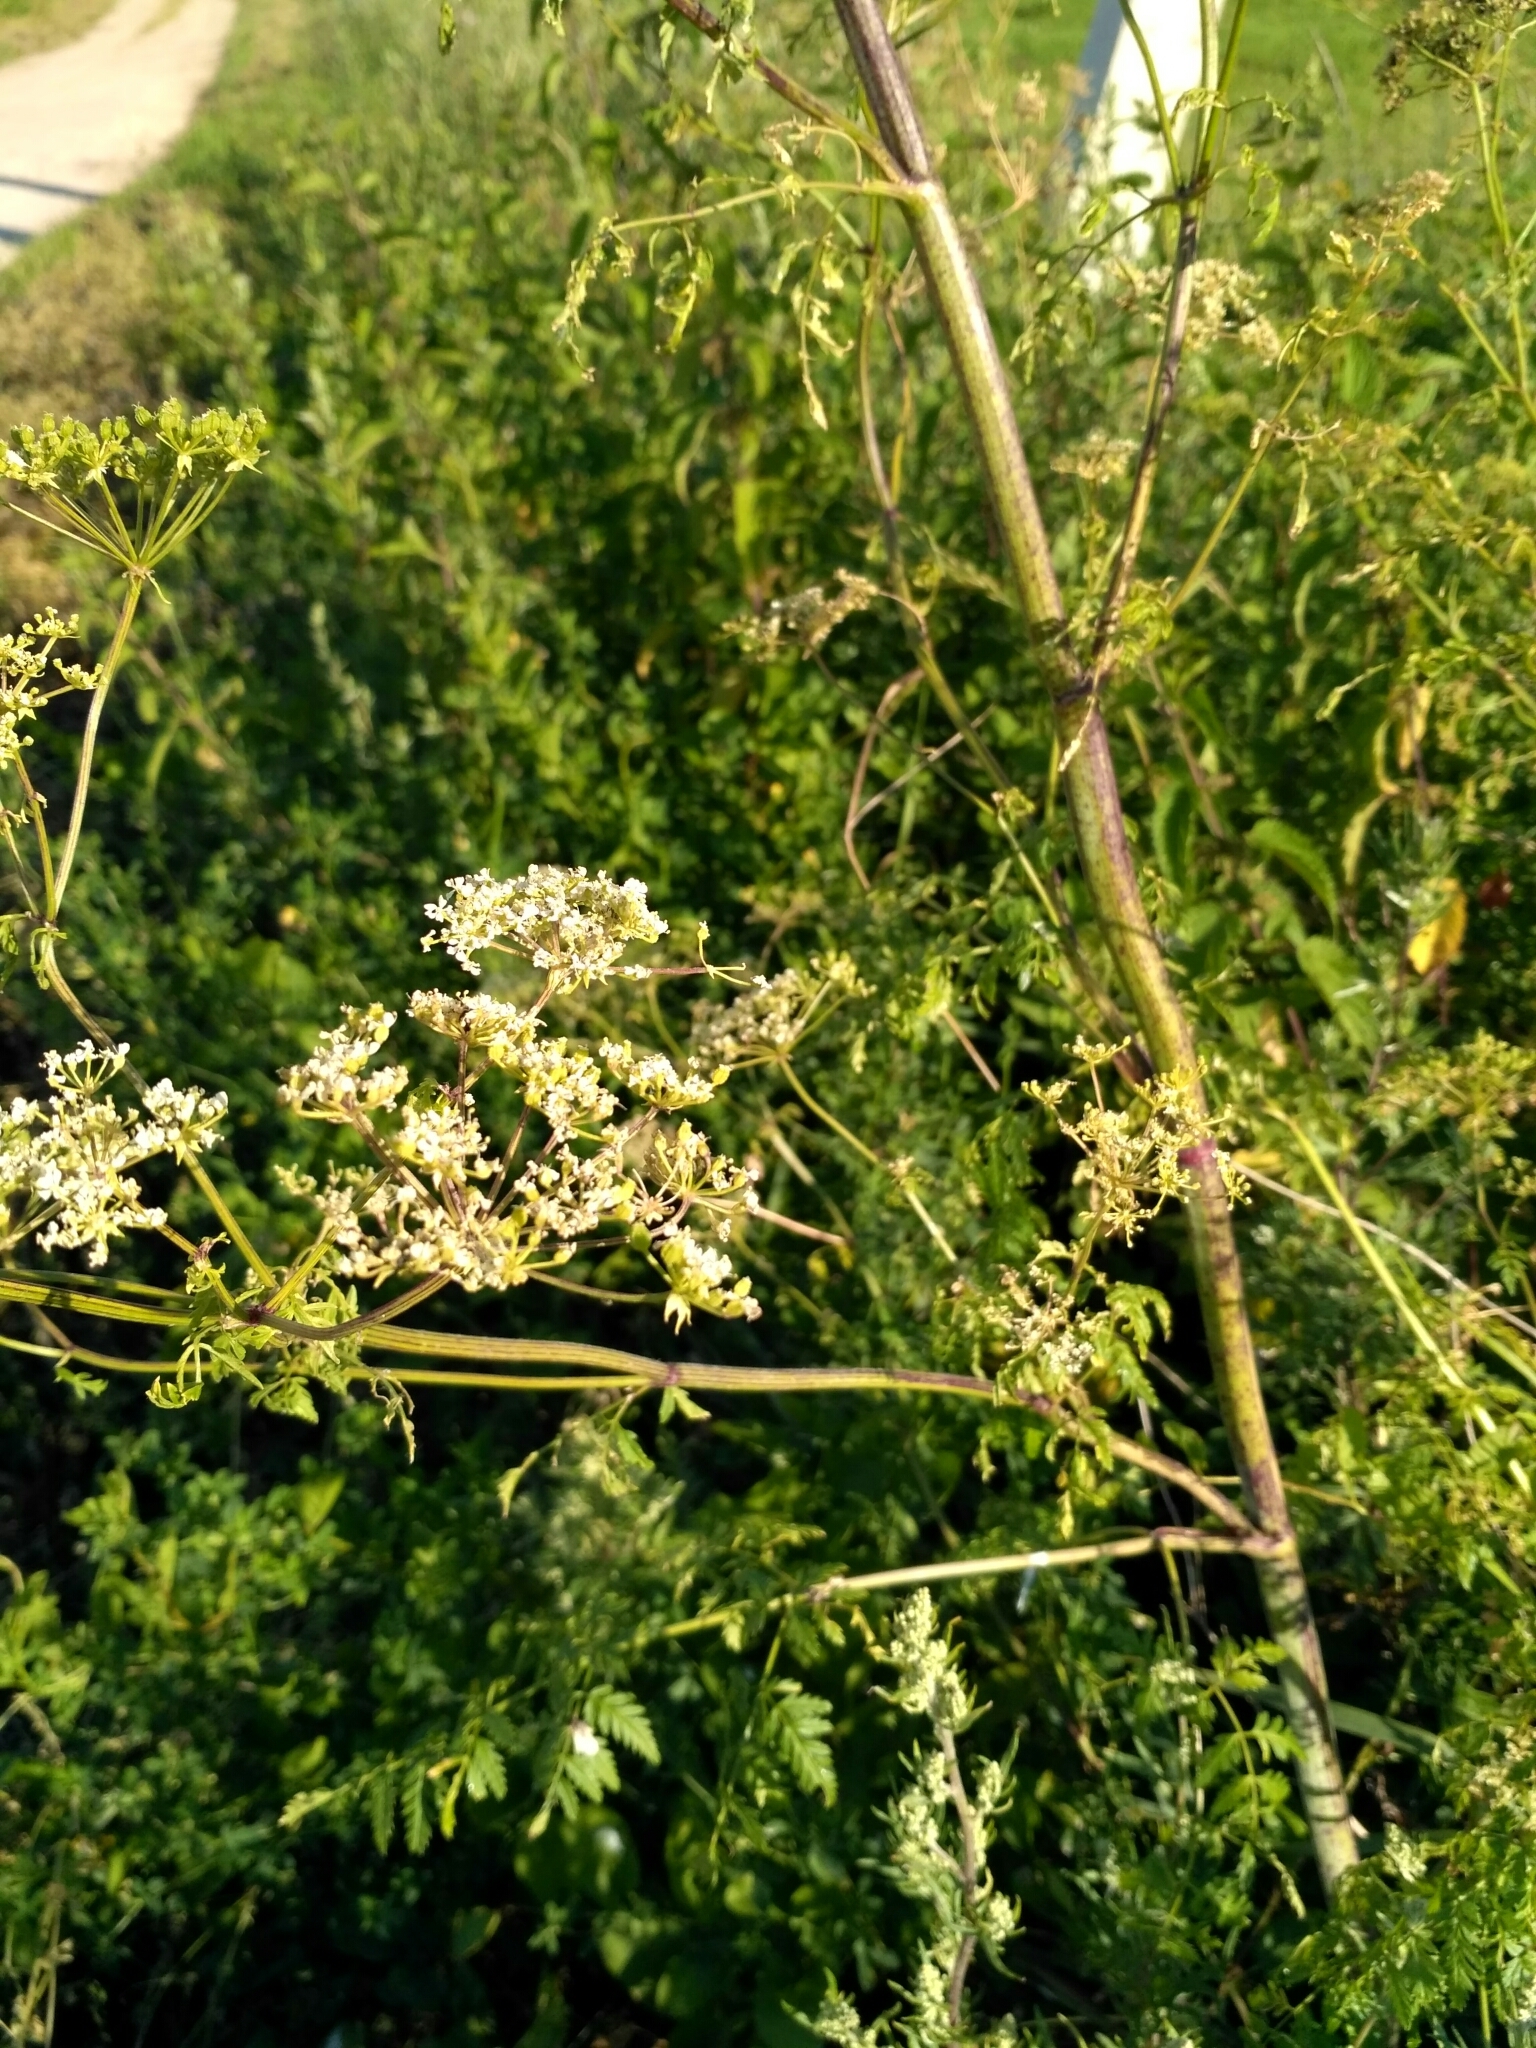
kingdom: Plantae
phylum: Tracheophyta
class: Magnoliopsida
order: Apiales
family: Apiaceae
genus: Conium
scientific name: Conium maculatum
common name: Hemlock
